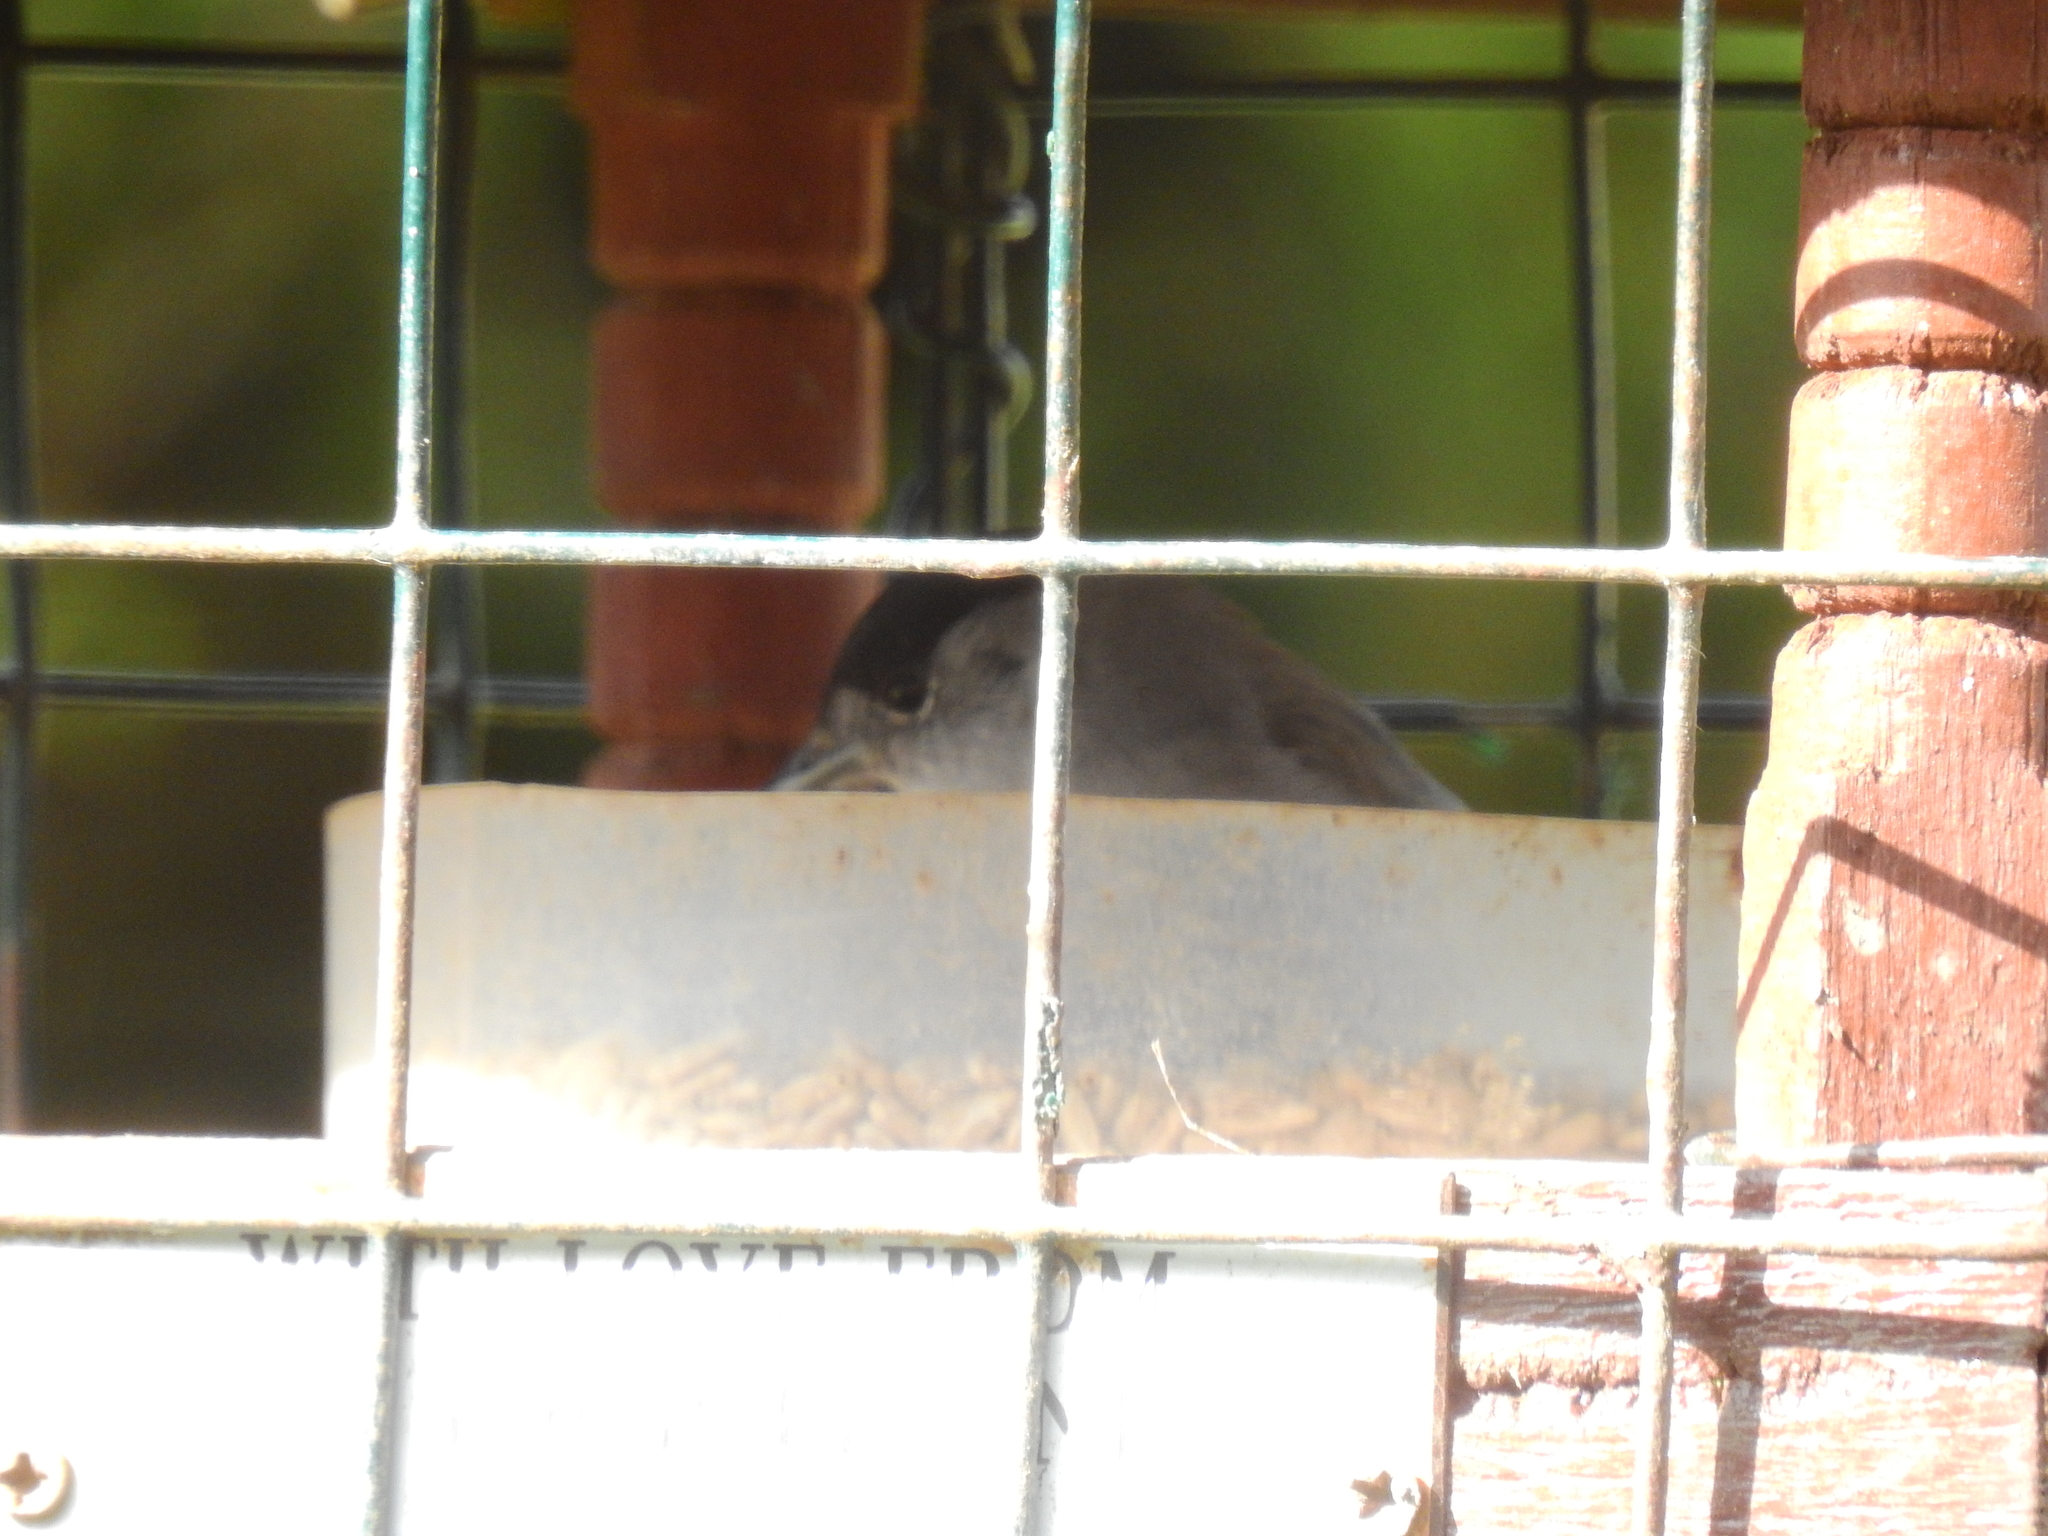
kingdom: Animalia
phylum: Chordata
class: Aves
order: Passeriformes
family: Sylviidae
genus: Sylvia
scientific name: Sylvia atricapilla
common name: Eurasian blackcap
